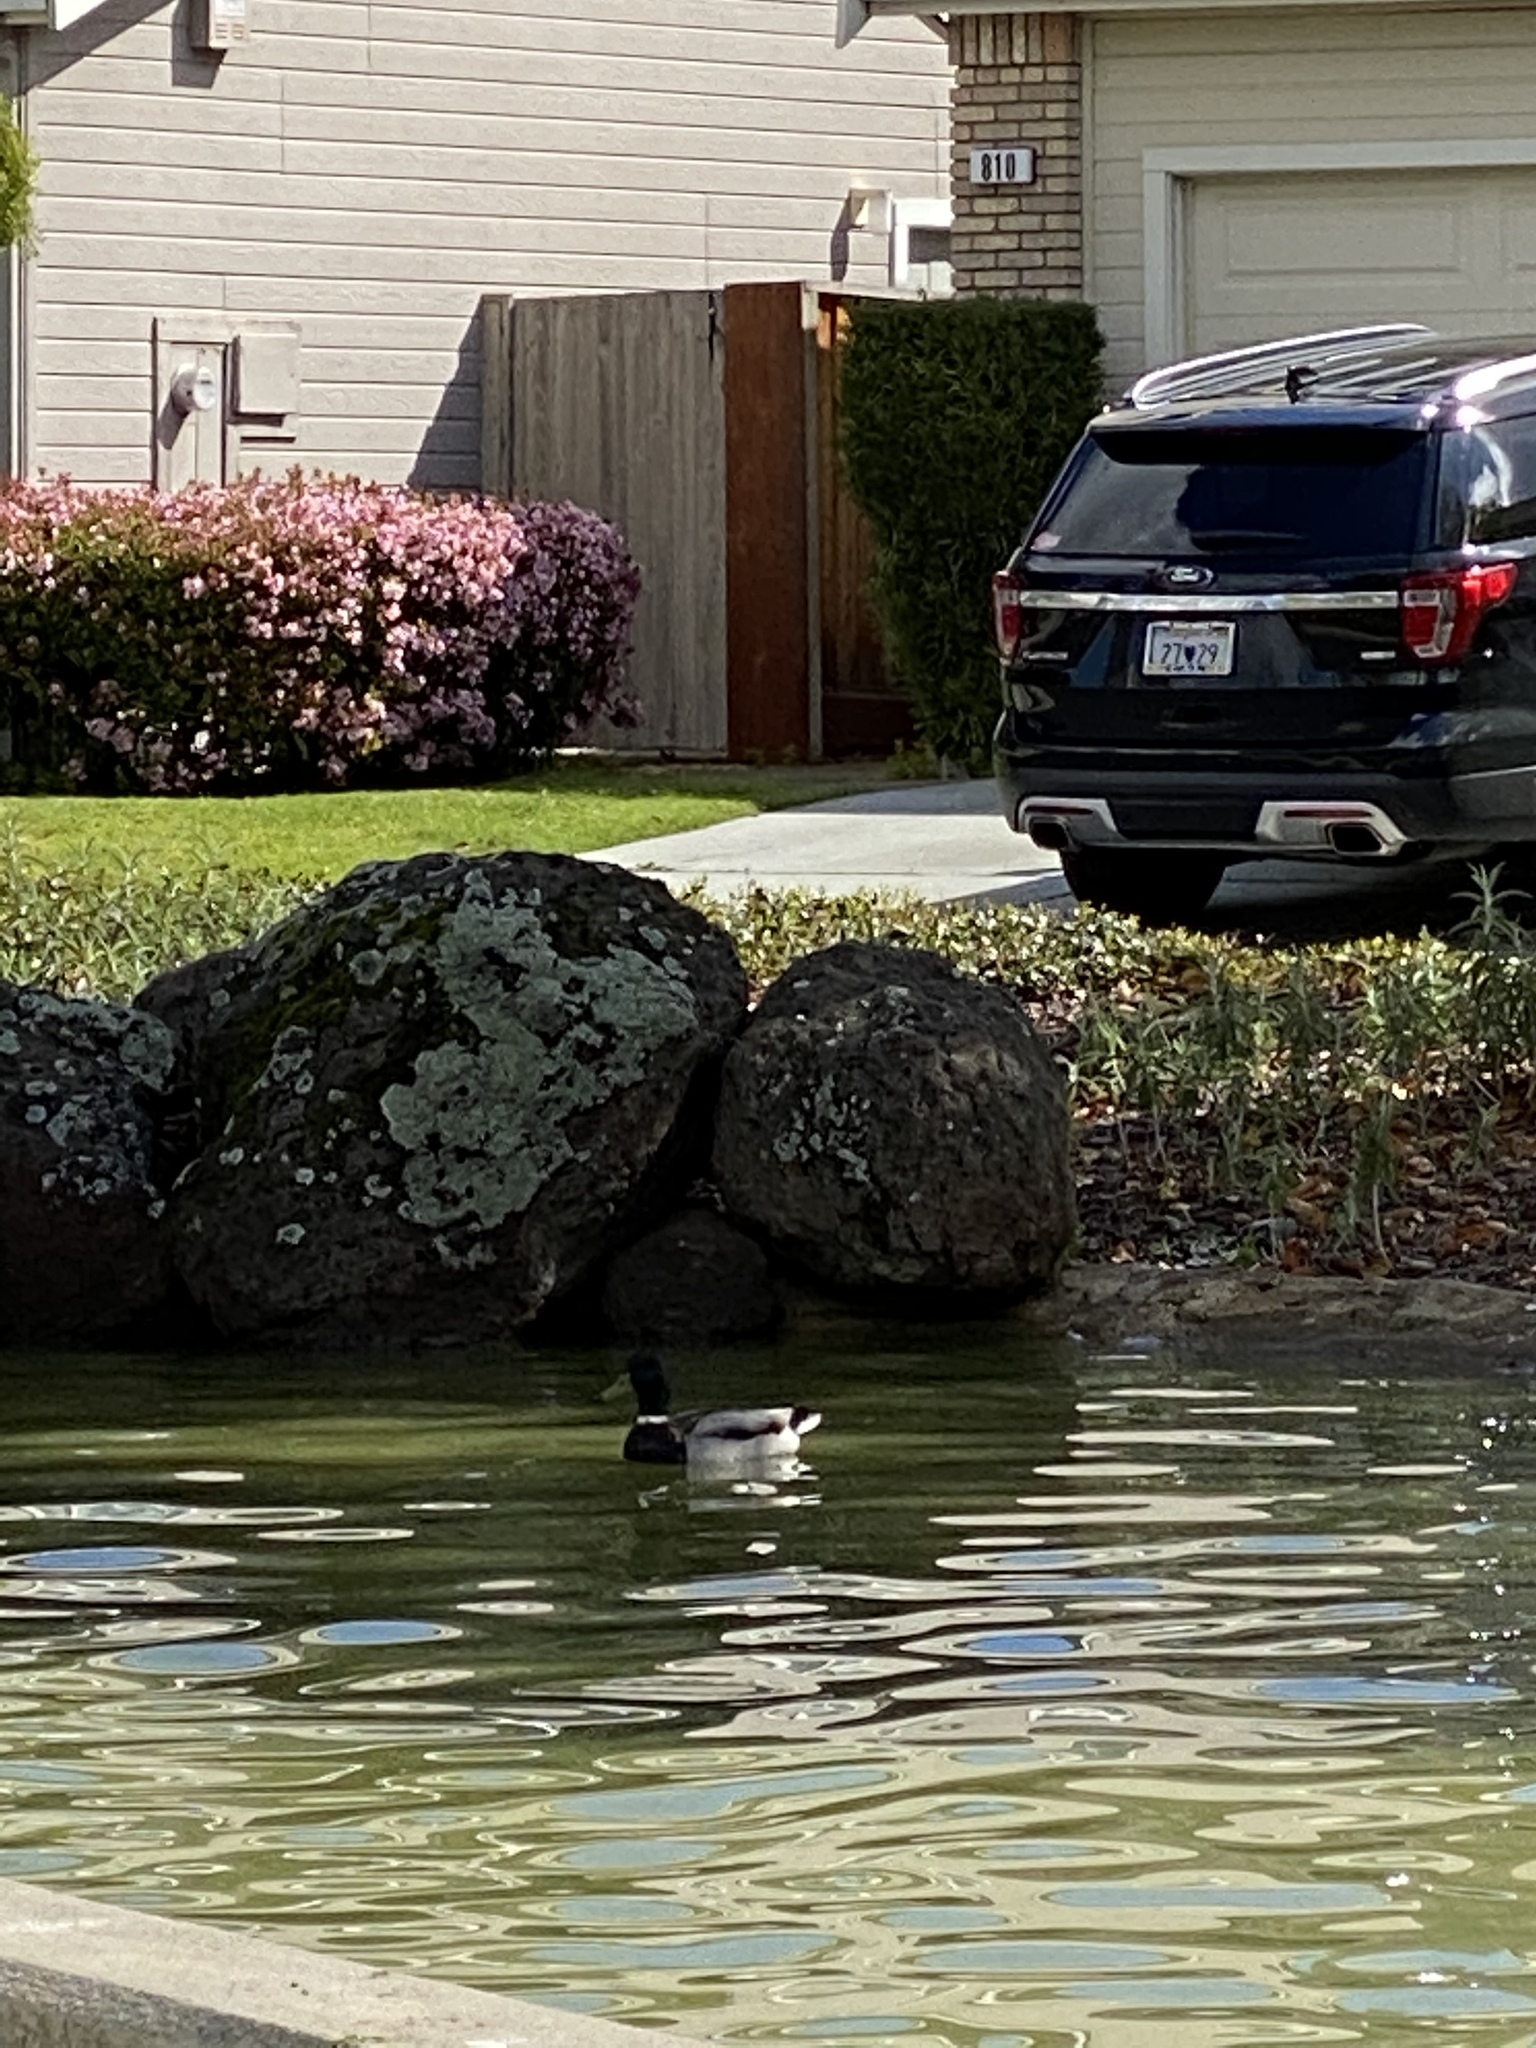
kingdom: Animalia
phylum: Chordata
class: Aves
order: Anseriformes
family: Anatidae
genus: Anas
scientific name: Anas platyrhynchos
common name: Mallard
